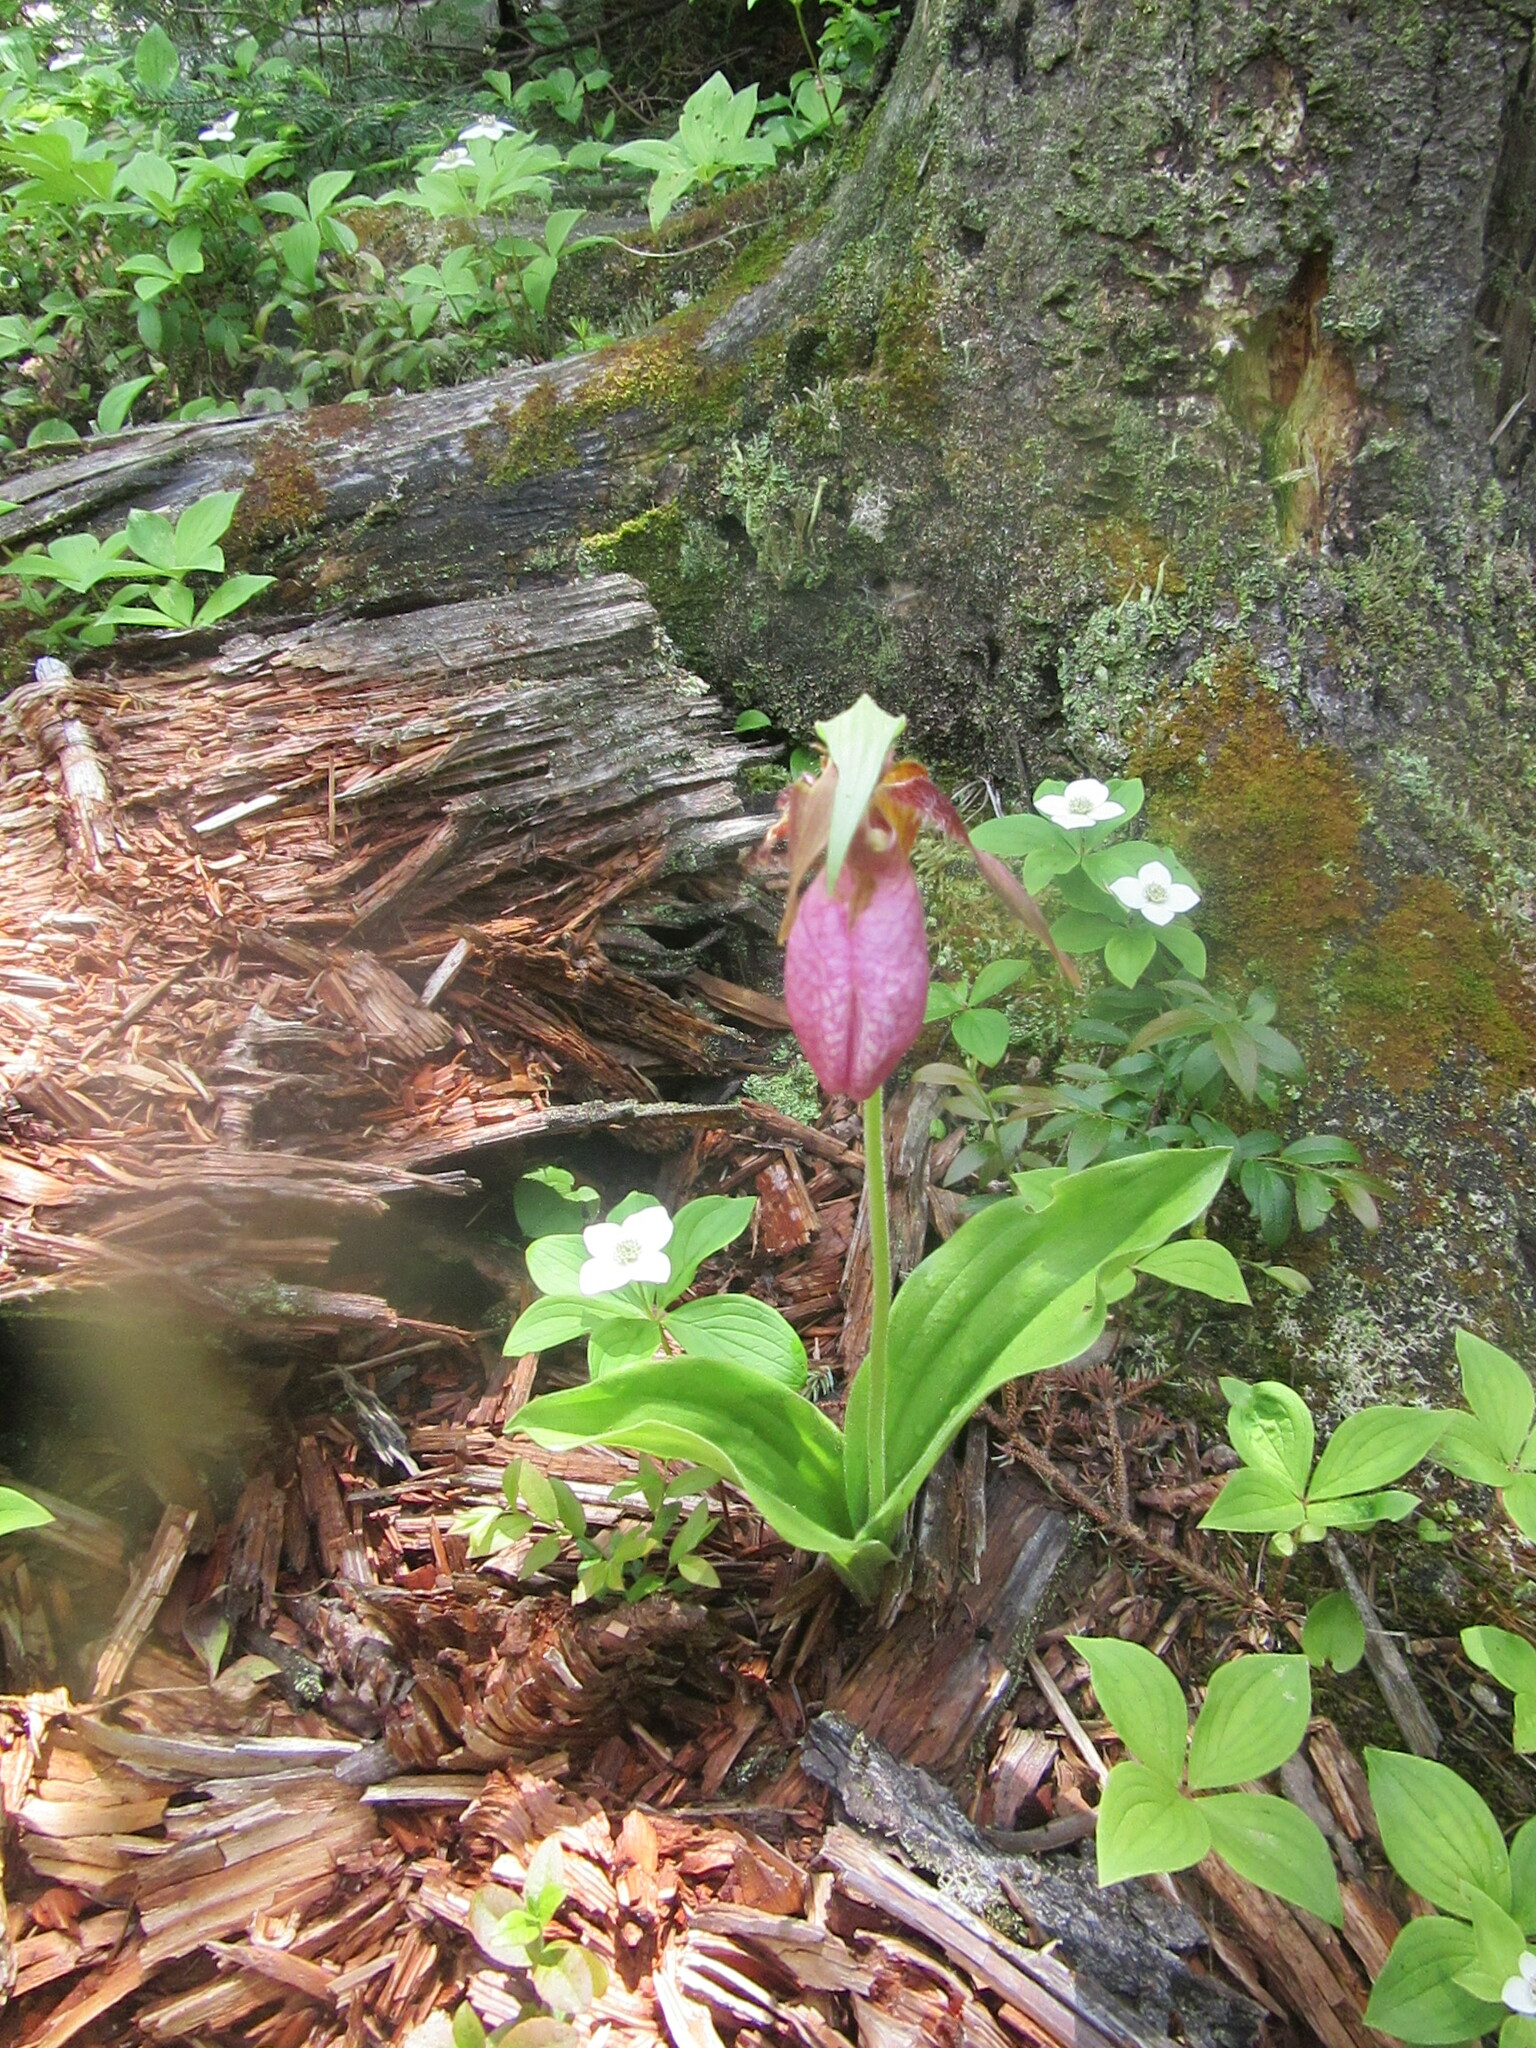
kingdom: Plantae
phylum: Tracheophyta
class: Liliopsida
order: Asparagales
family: Orchidaceae
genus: Cypripedium
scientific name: Cypripedium acaule
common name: Pink lady's-slipper
